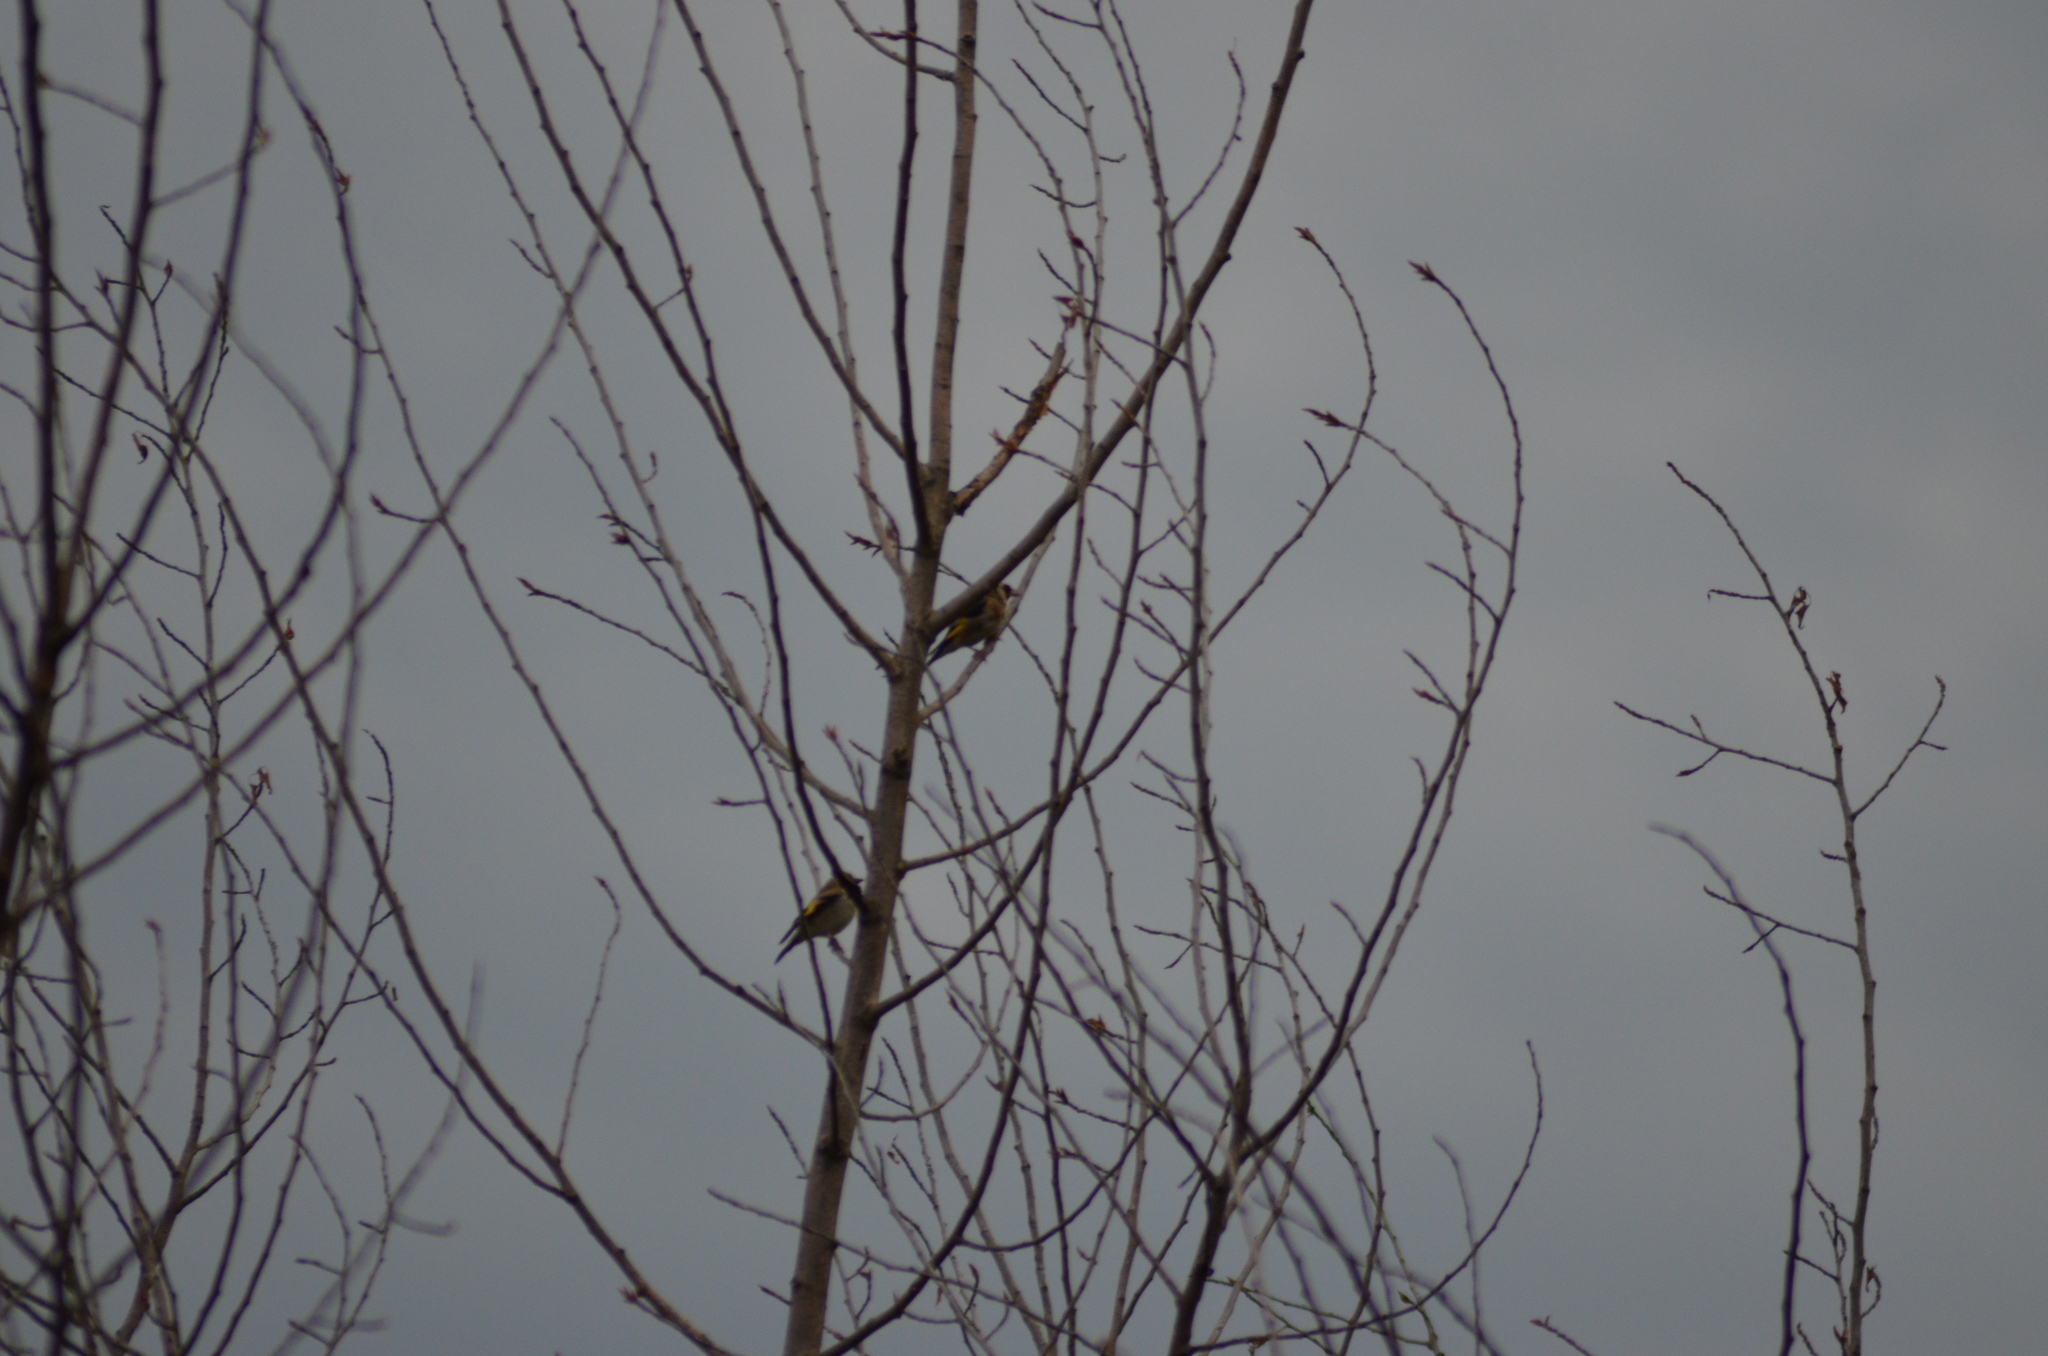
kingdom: Animalia
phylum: Chordata
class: Aves
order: Passeriformes
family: Fringillidae
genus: Carduelis
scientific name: Carduelis carduelis
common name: European goldfinch
